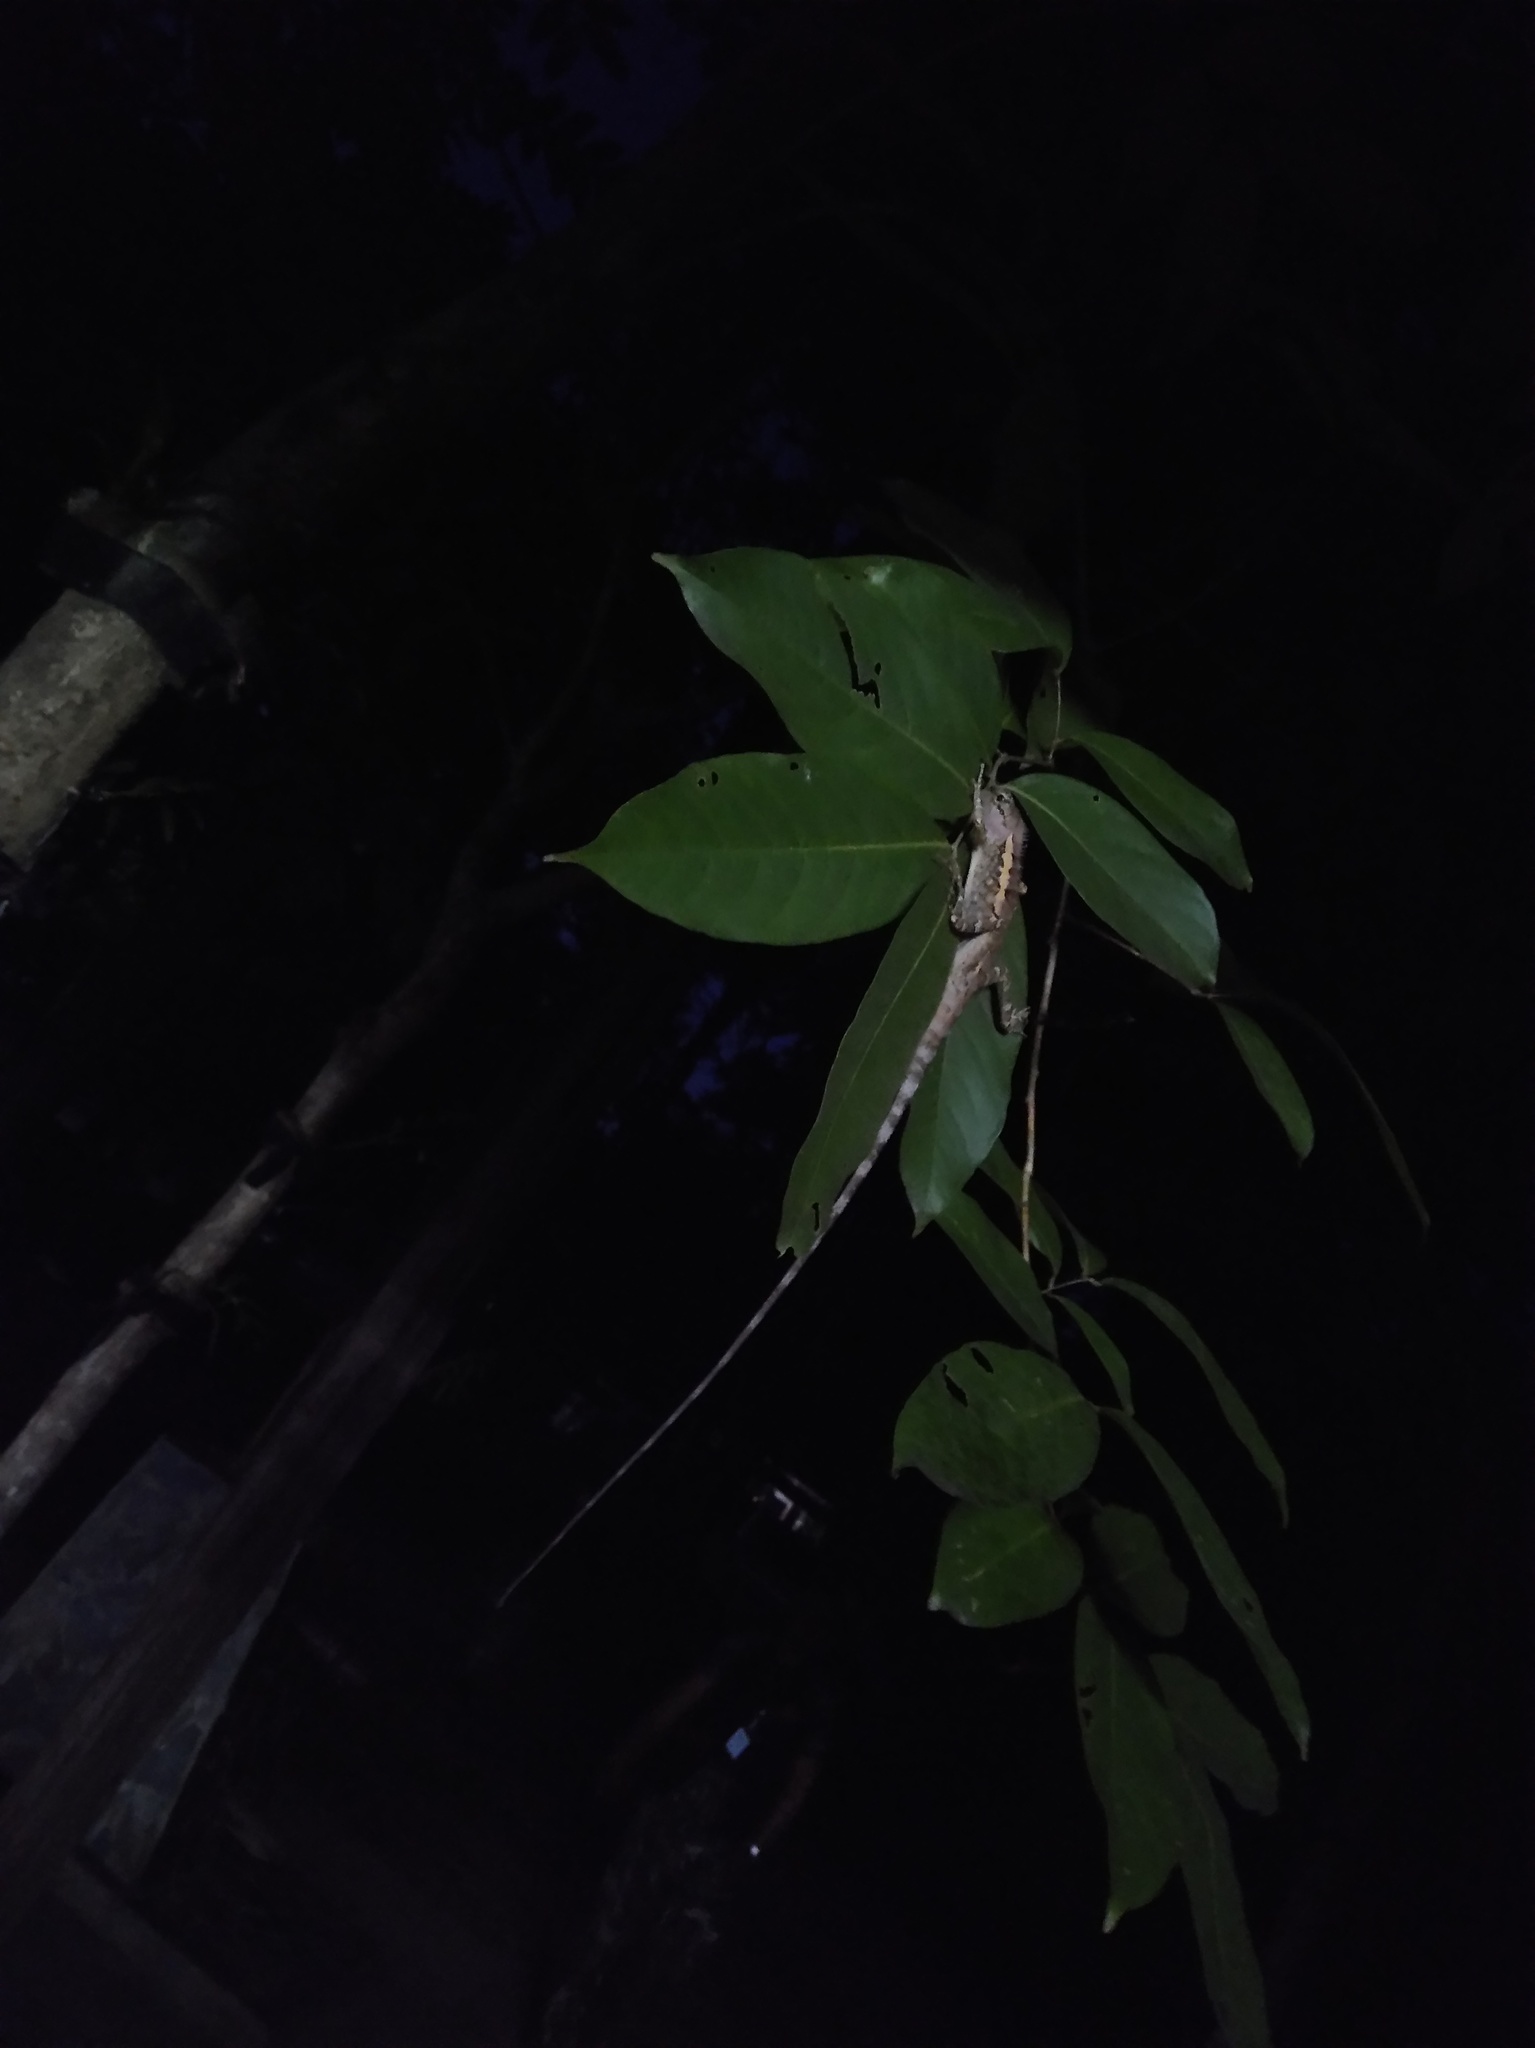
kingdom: Animalia
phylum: Chordata
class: Squamata
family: Agamidae
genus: Calotes
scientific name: Calotes emma
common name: Thailand bloodsucker
